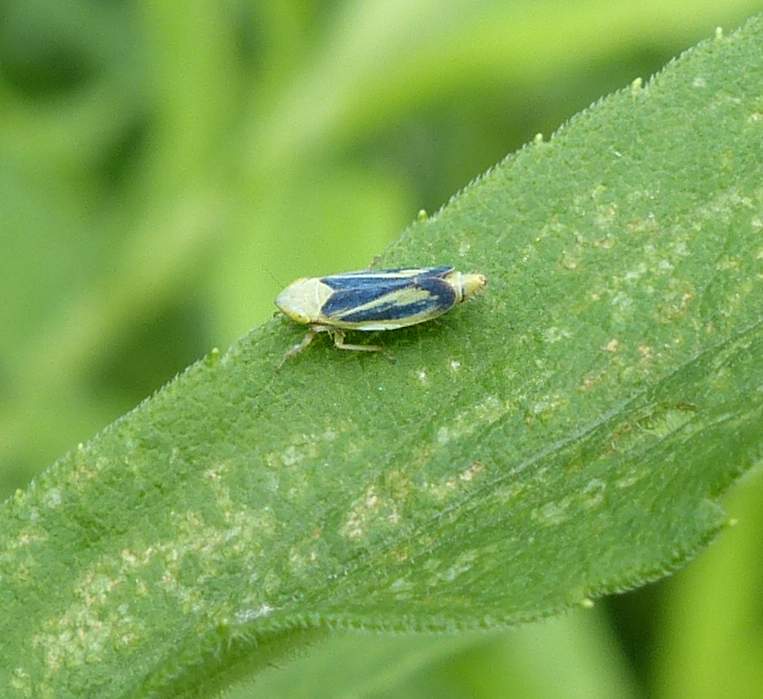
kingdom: Animalia
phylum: Arthropoda
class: Insecta
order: Hemiptera
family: Cicadellidae
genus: Sorhoanus
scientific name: Sorhoanus orientalis
